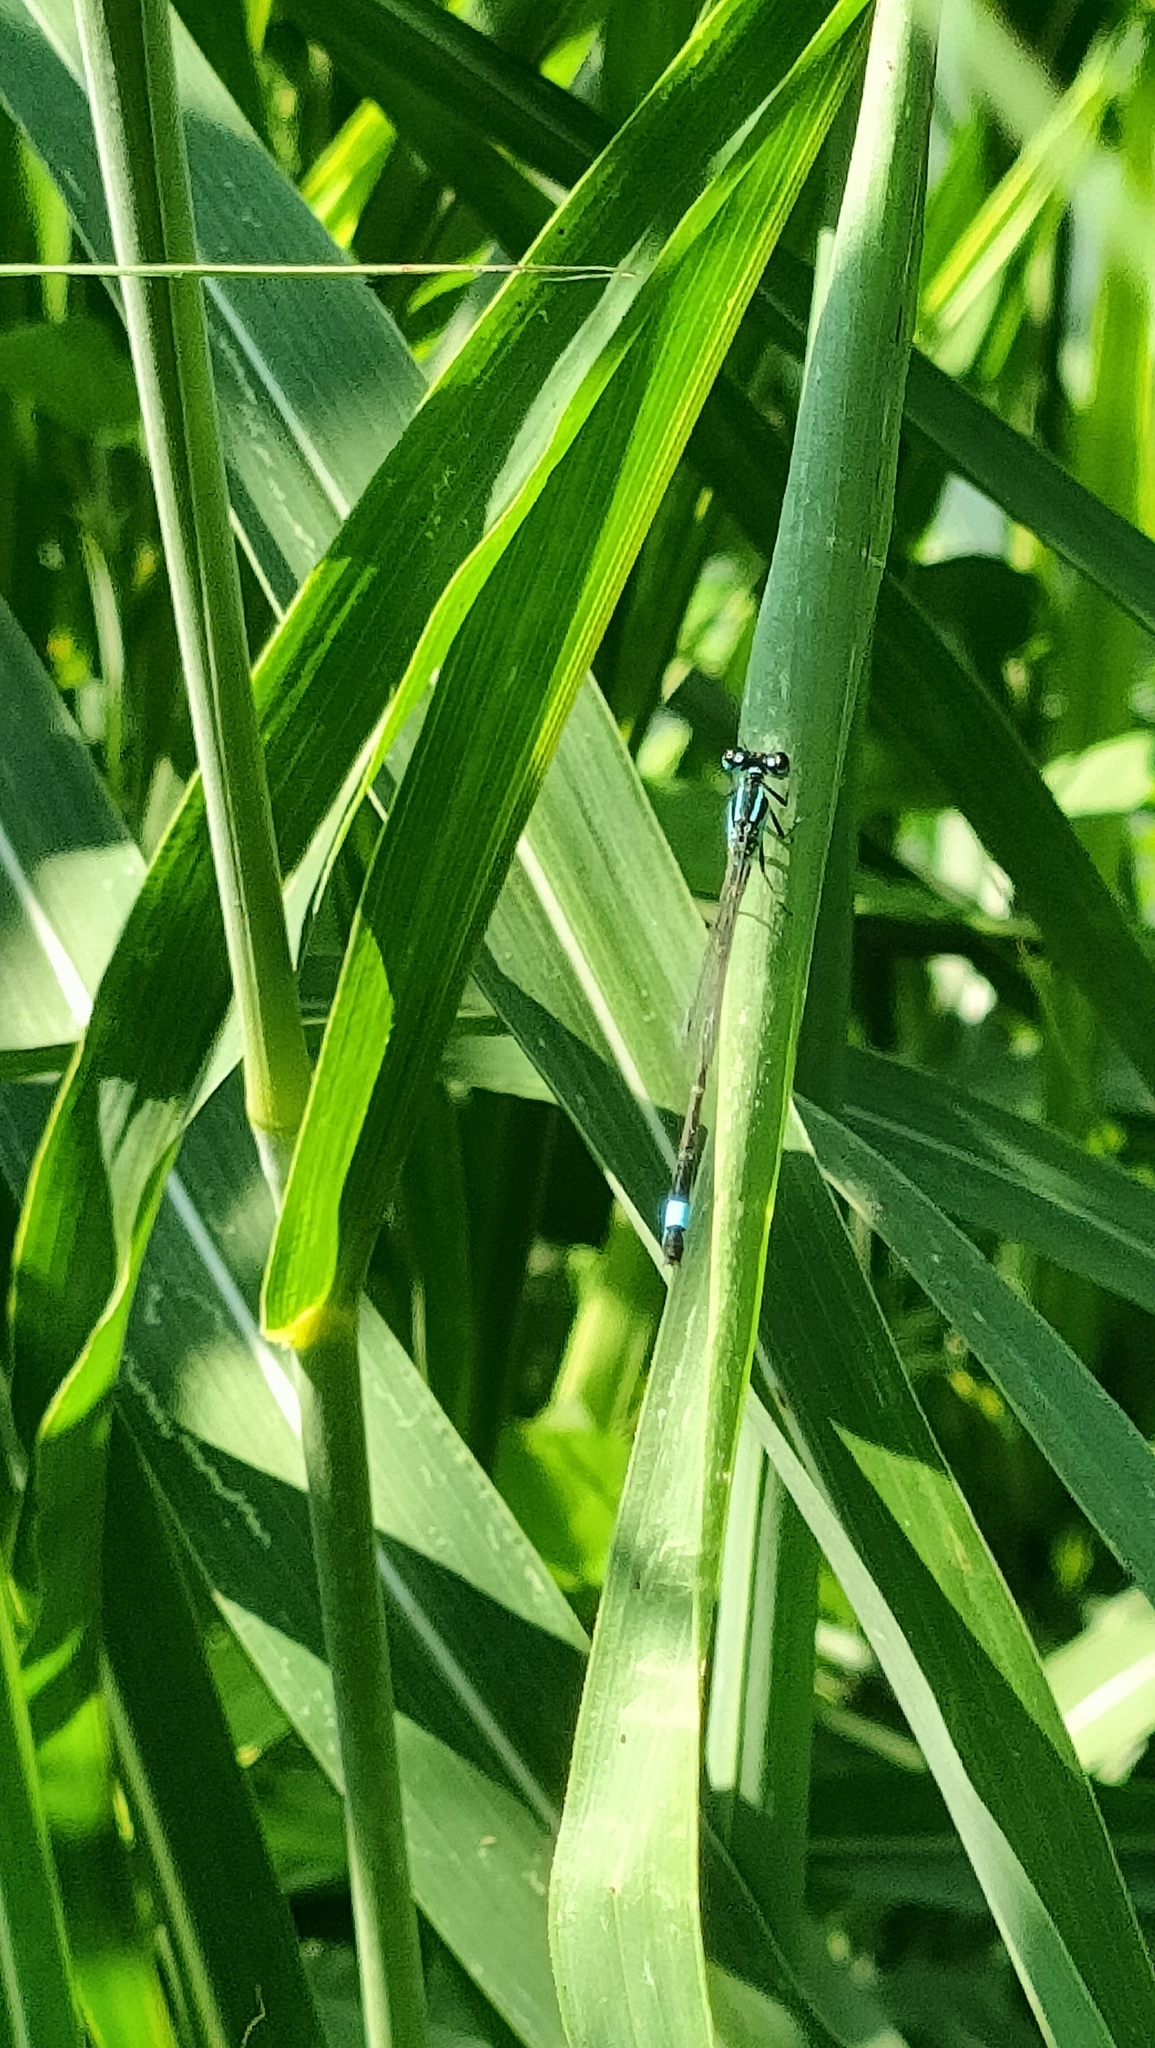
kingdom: Animalia
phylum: Arthropoda
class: Insecta
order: Odonata
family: Coenagrionidae
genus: Ischnura
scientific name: Ischnura elegans
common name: Blue-tailed damselfly
